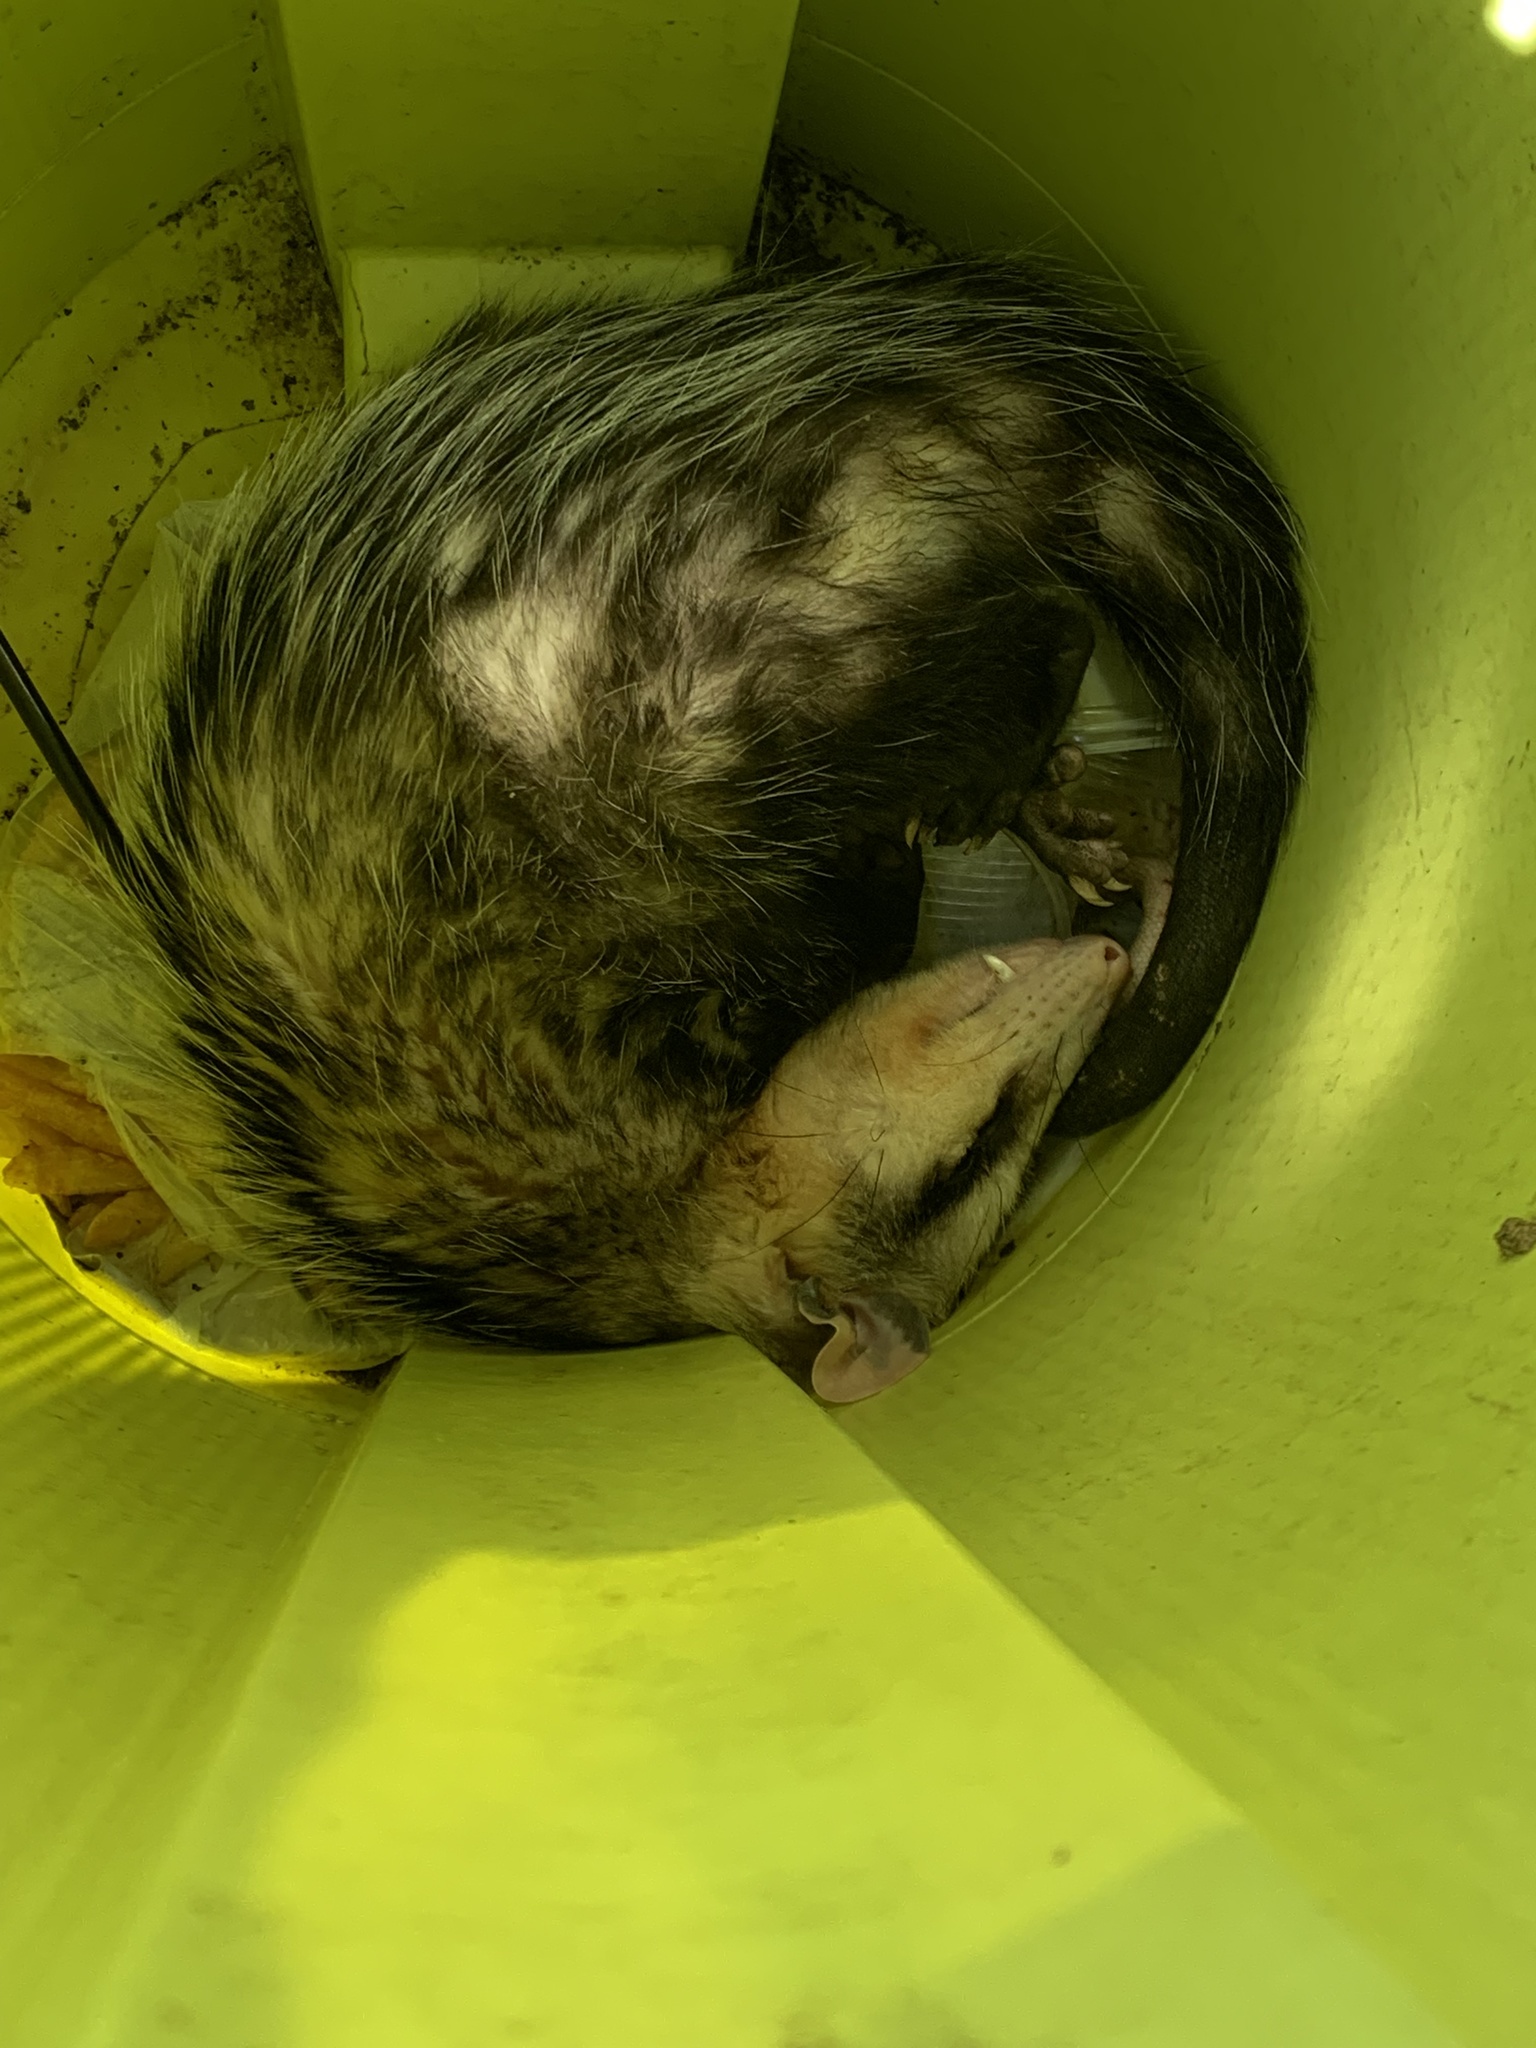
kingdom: Animalia
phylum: Chordata
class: Mammalia
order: Didelphimorphia
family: Didelphidae
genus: Didelphis
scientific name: Didelphis albiventris
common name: White-eared opossum
